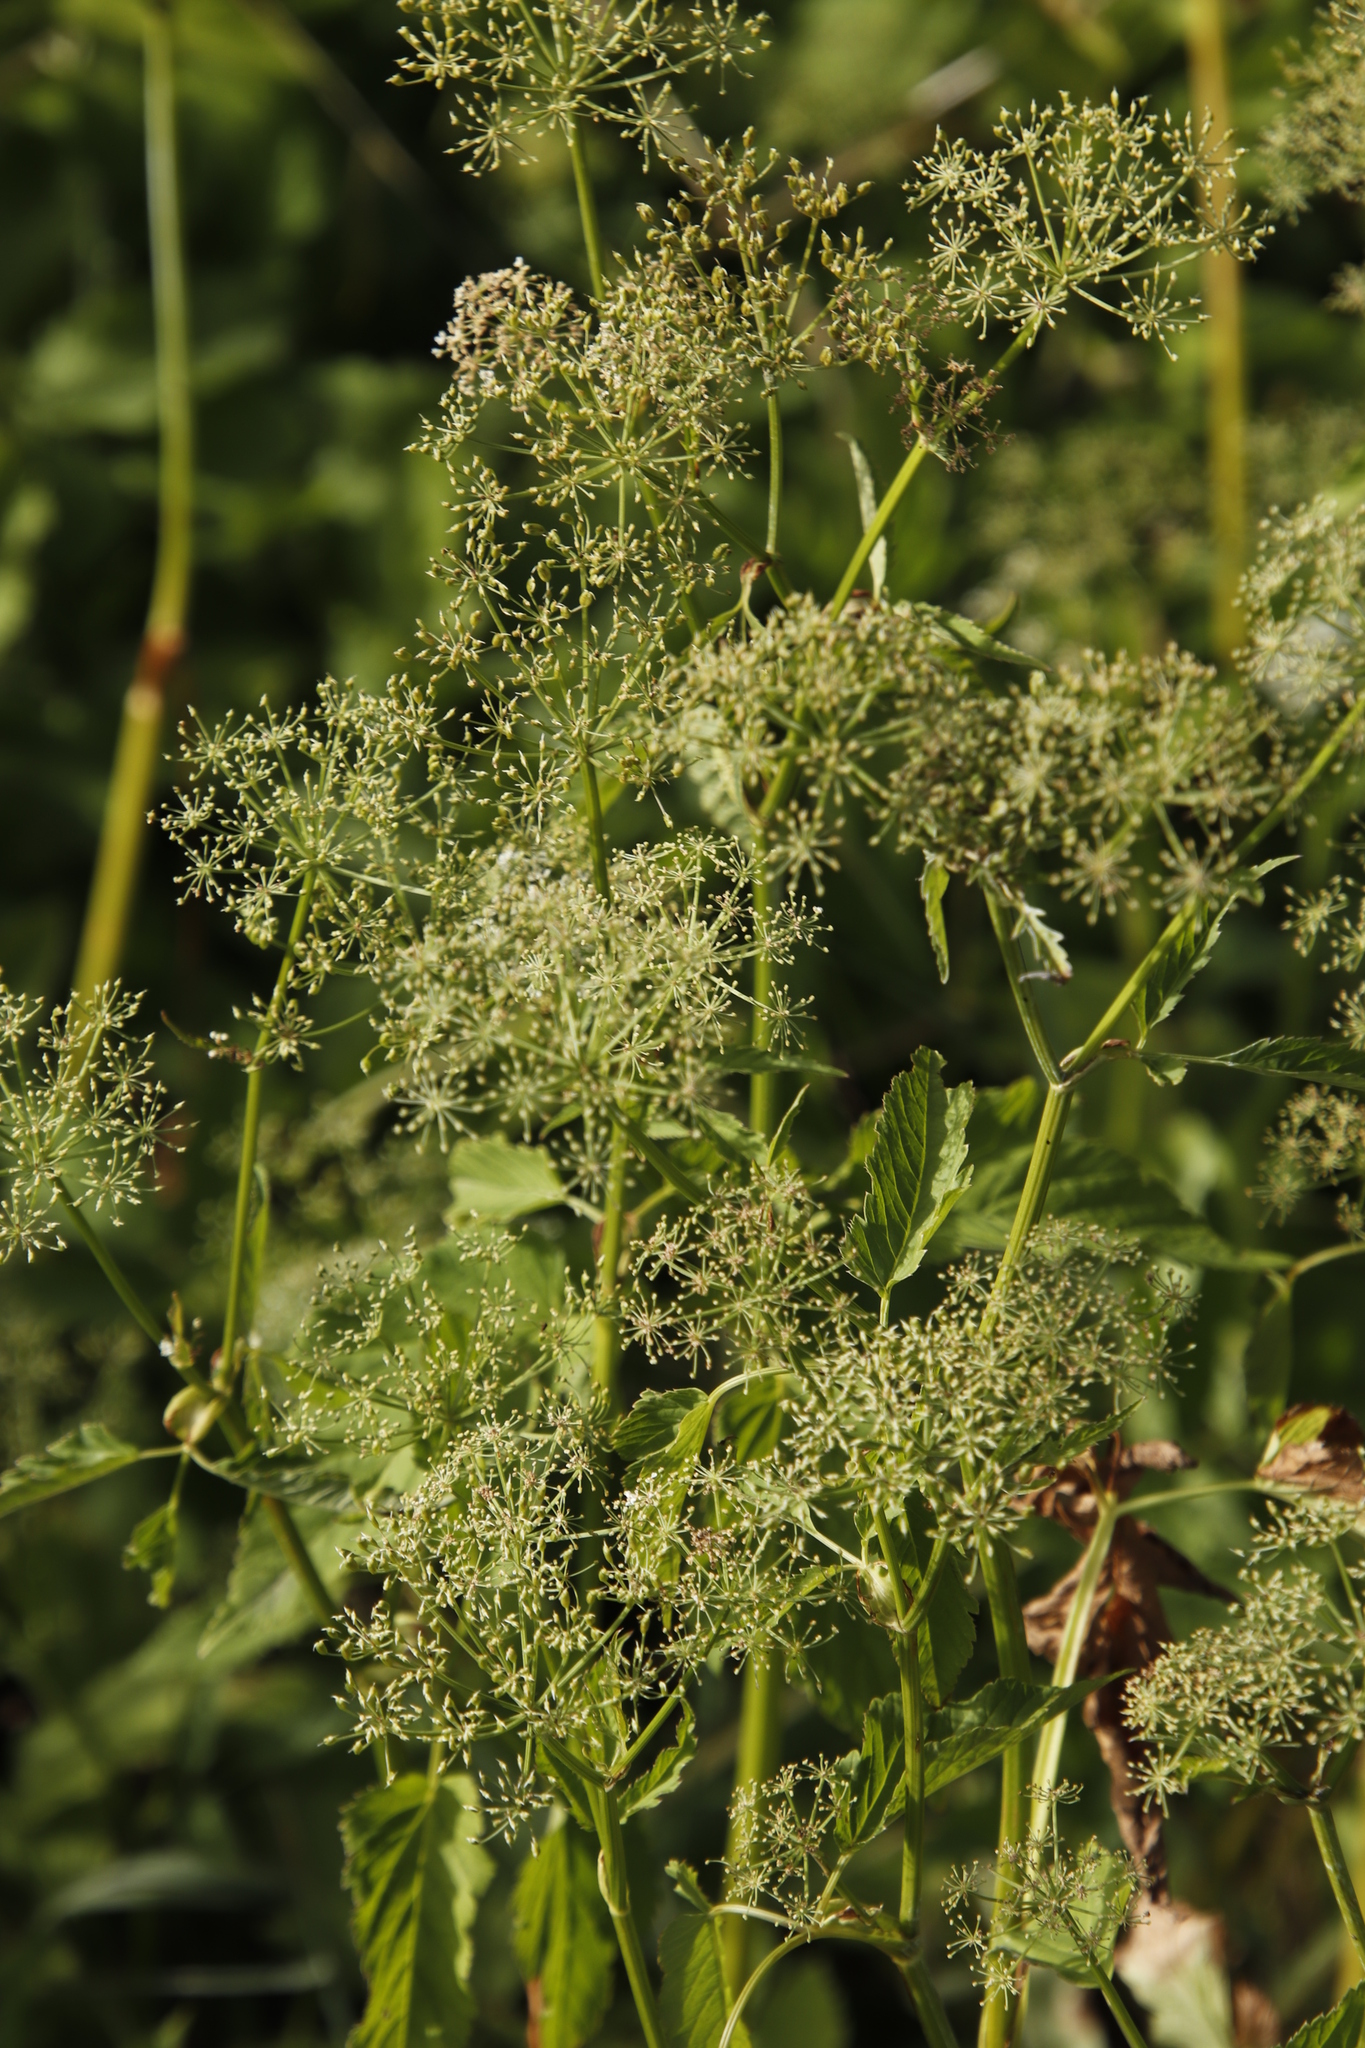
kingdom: Plantae
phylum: Tracheophyta
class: Magnoliopsida
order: Apiales
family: Apiaceae
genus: Aegopodium
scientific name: Aegopodium podagraria
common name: Ground-elder
